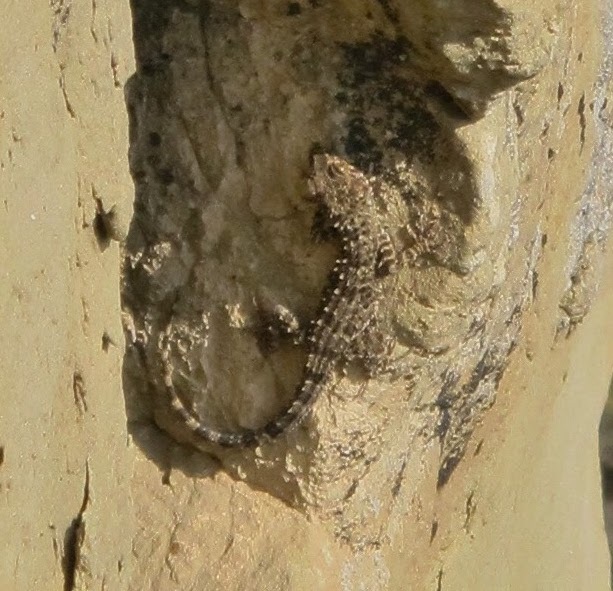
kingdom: Animalia
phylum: Chordata
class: Squamata
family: Gekkonidae
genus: Tenuidactylus
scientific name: Tenuidactylus caspius
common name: Caspian bent-toed gecko
